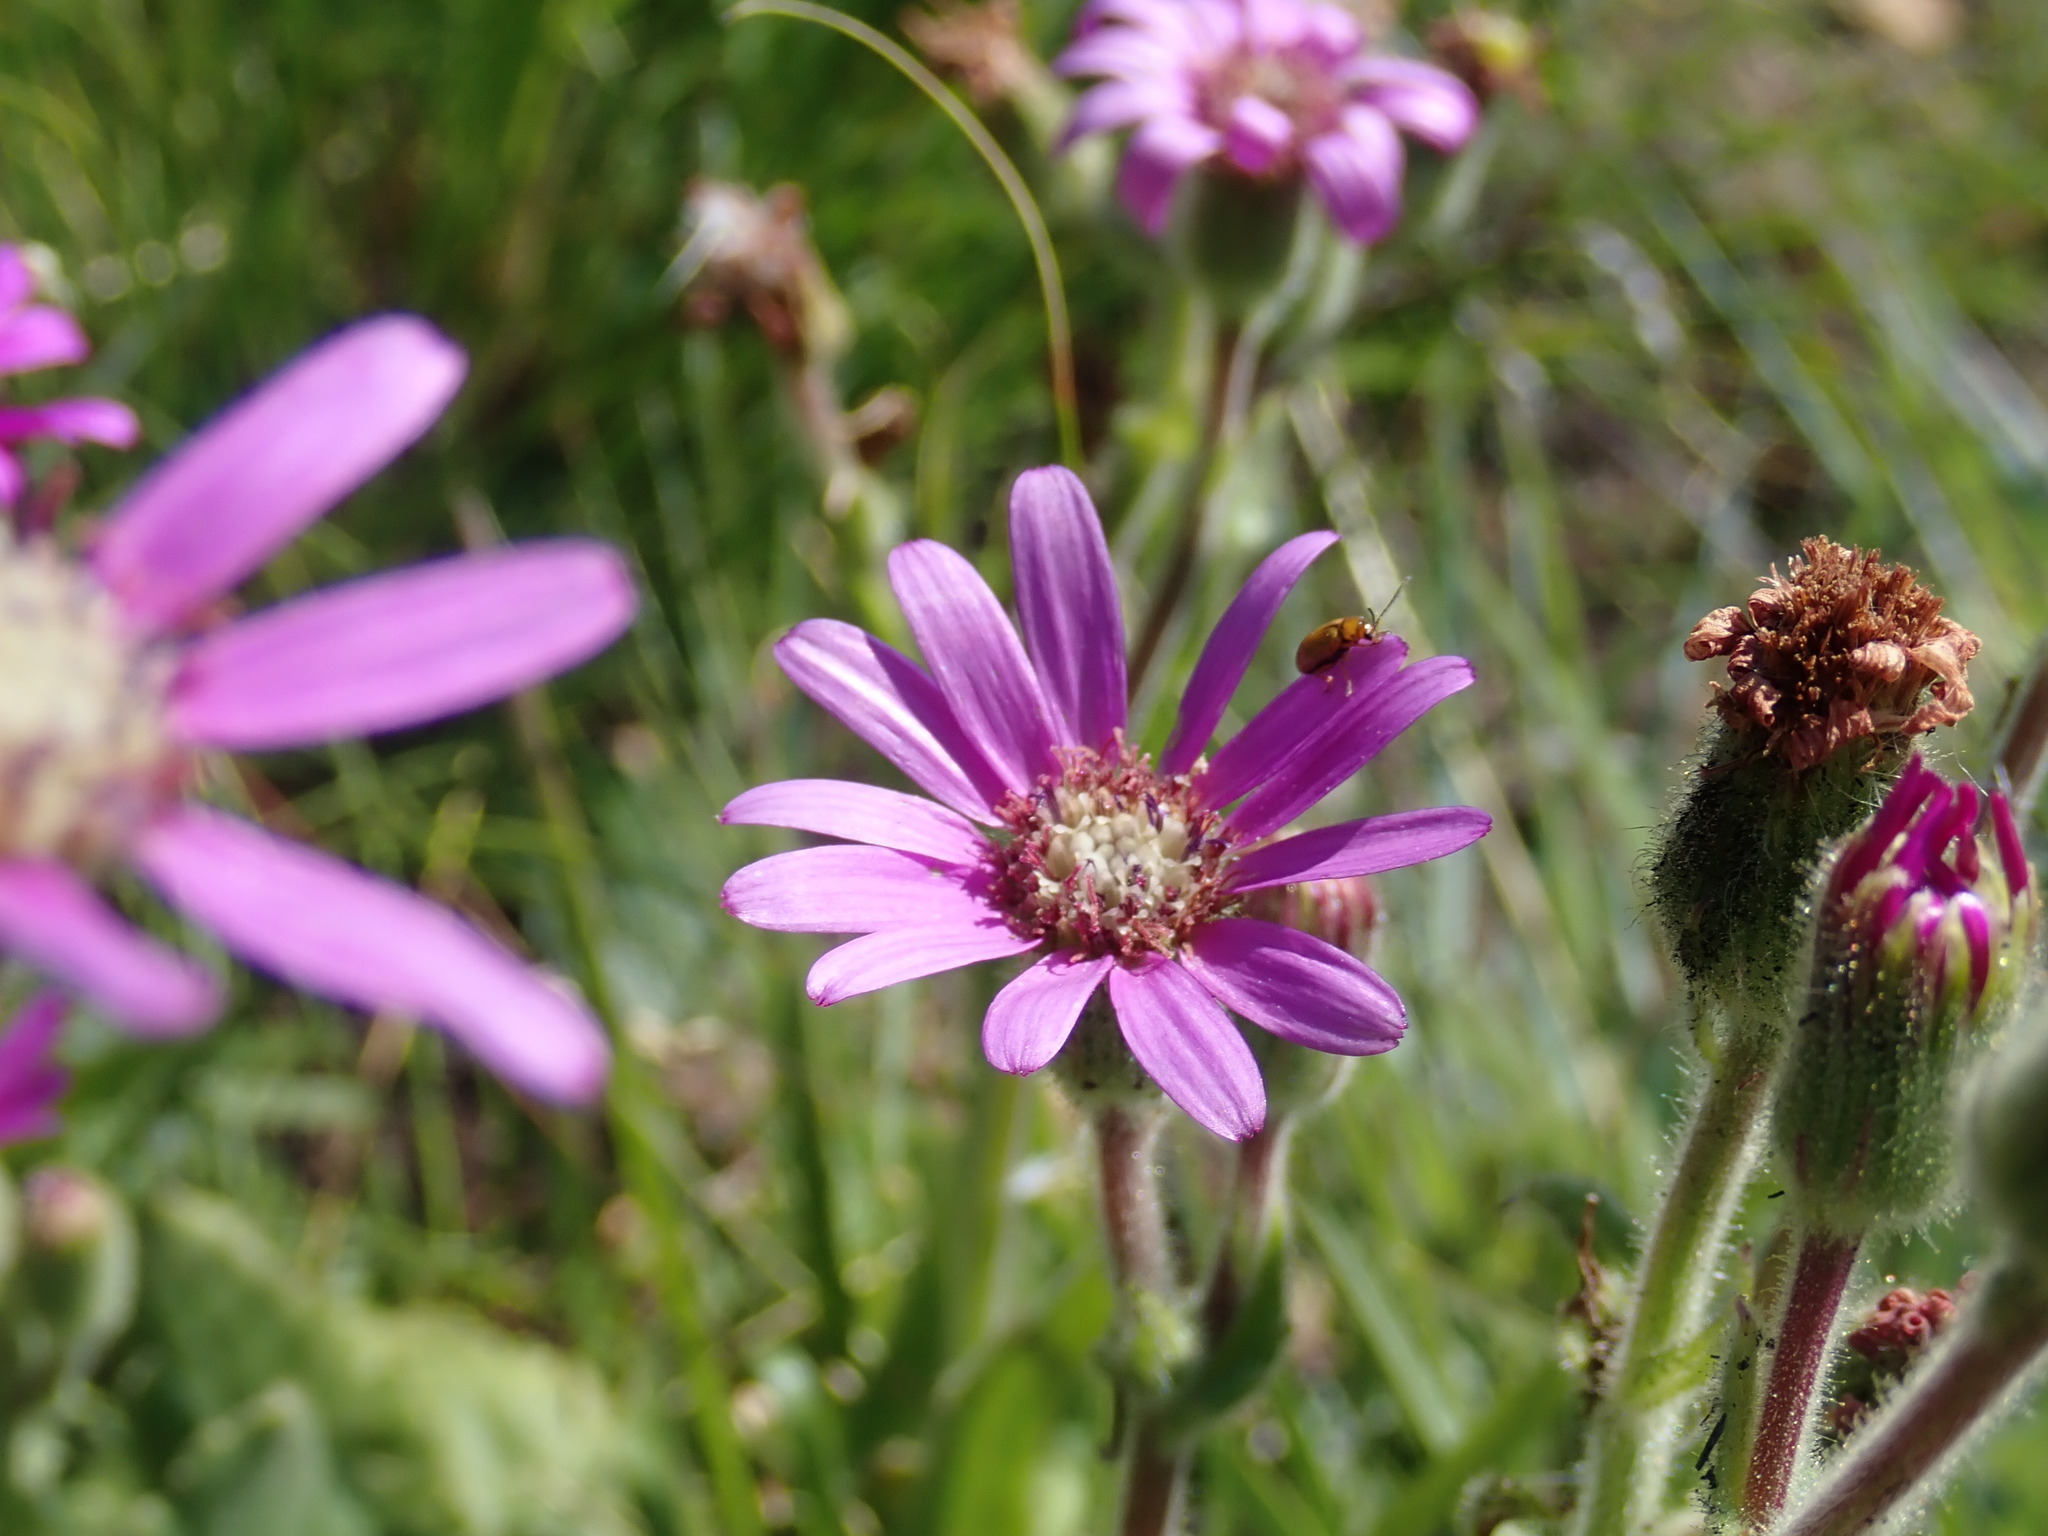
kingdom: Plantae
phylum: Tracheophyta
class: Magnoliopsida
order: Asterales
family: Asteraceae
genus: Senecio
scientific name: Senecio speciosus
